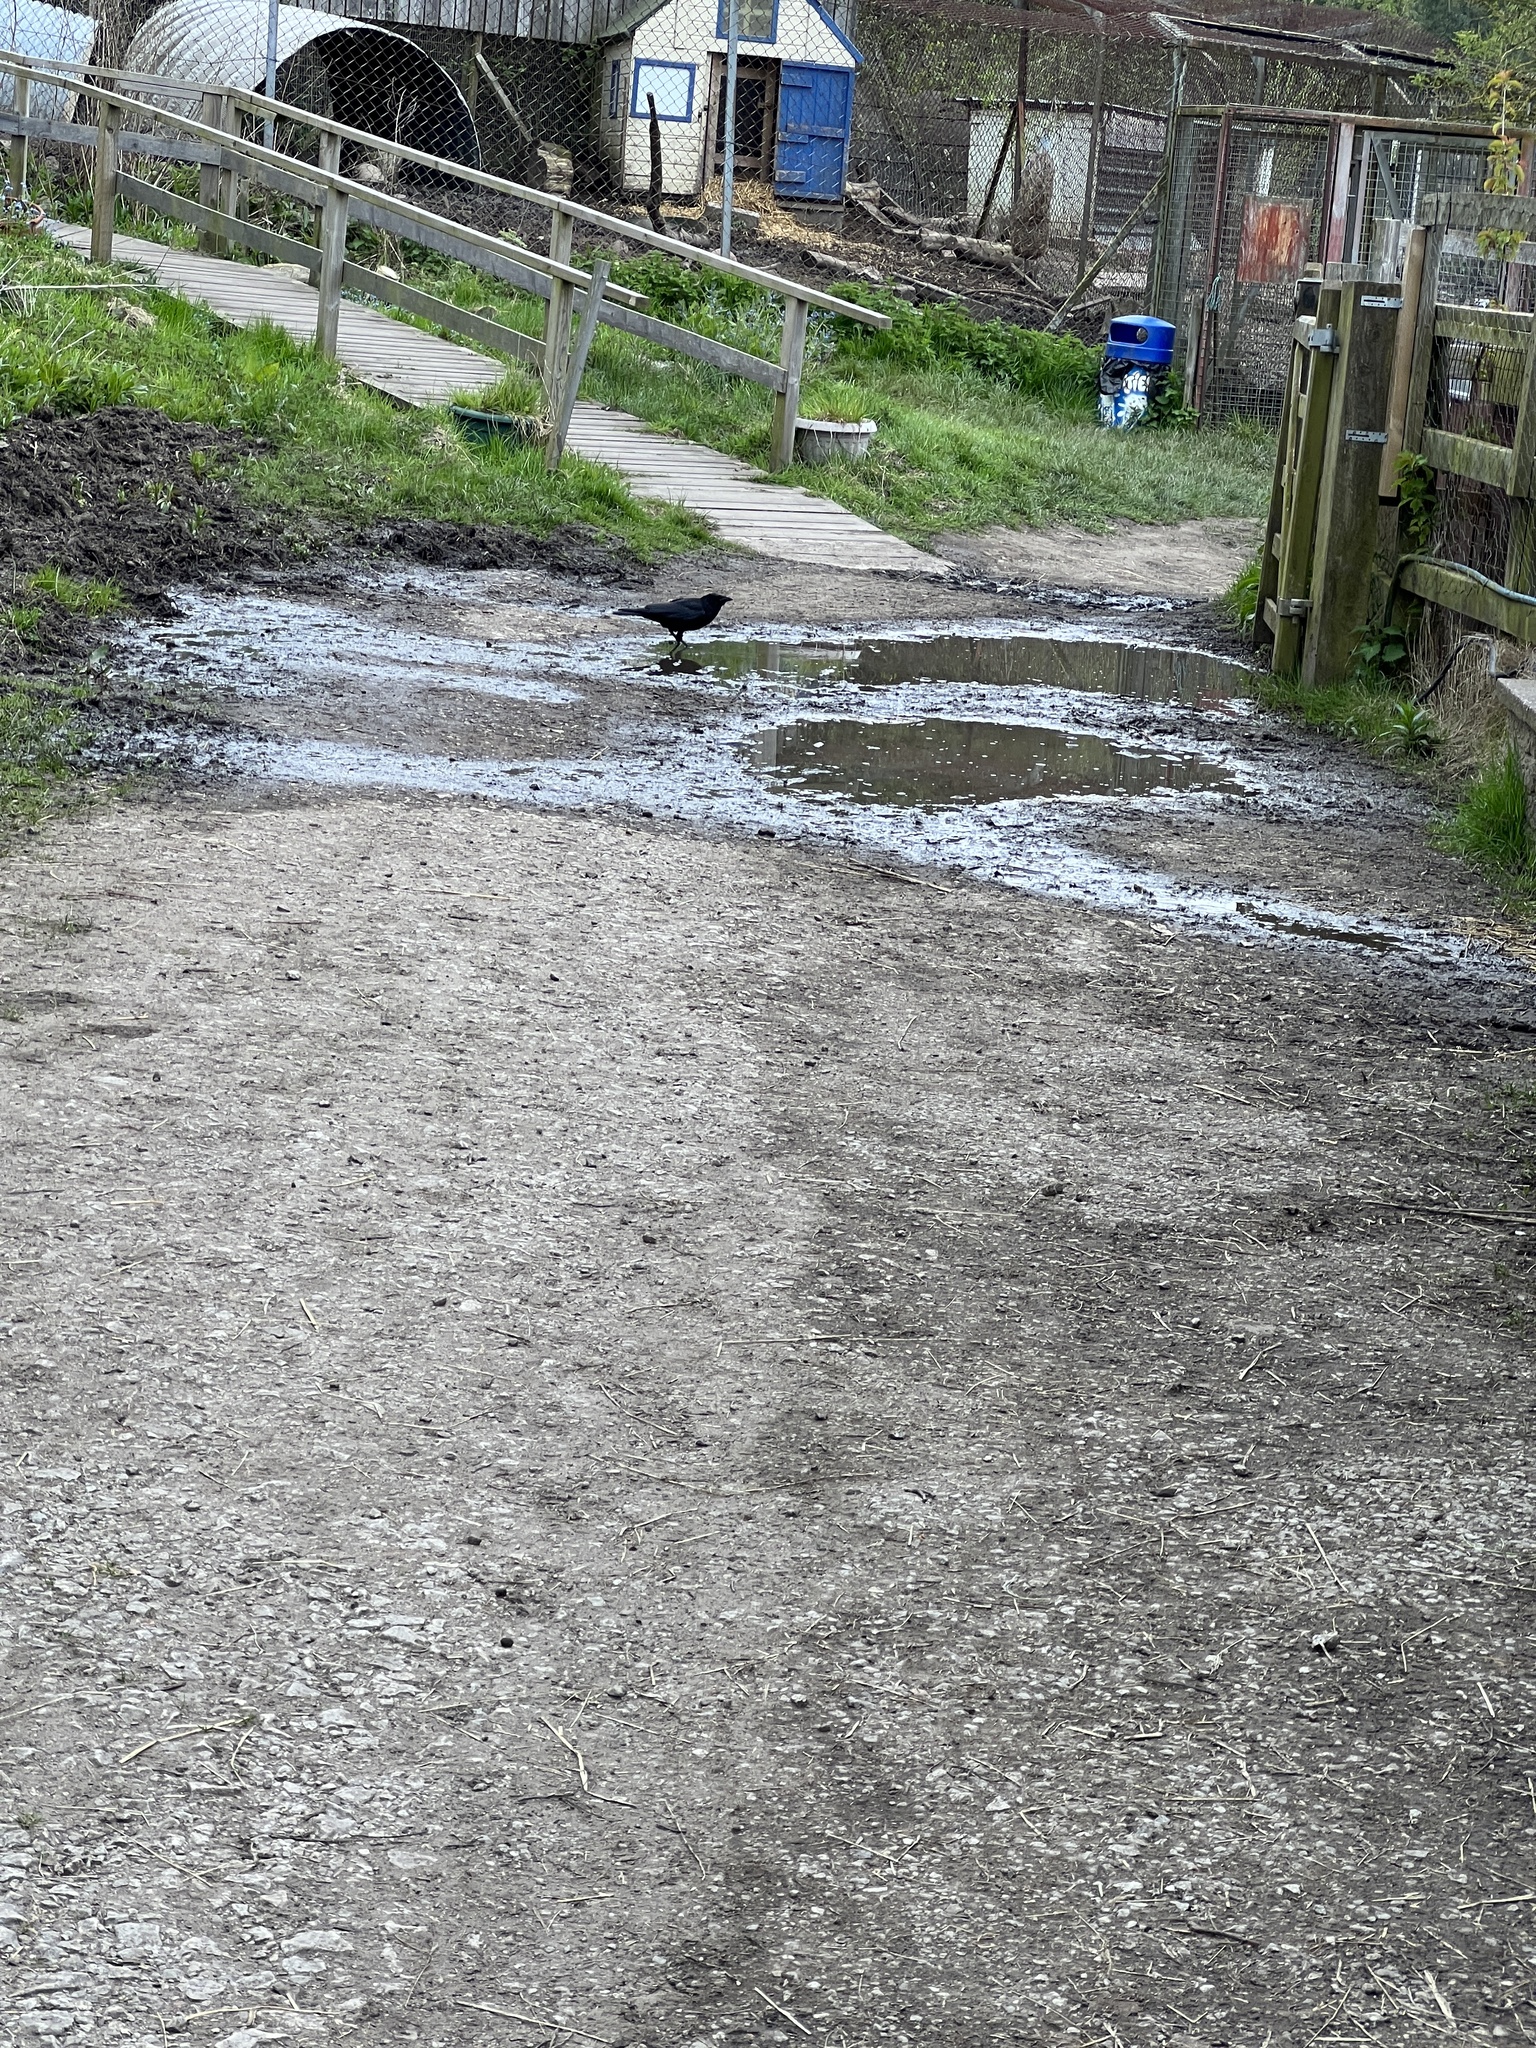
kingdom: Animalia
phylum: Chordata
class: Aves
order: Passeriformes
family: Corvidae
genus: Corvus
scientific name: Corvus corone
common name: Carrion crow
